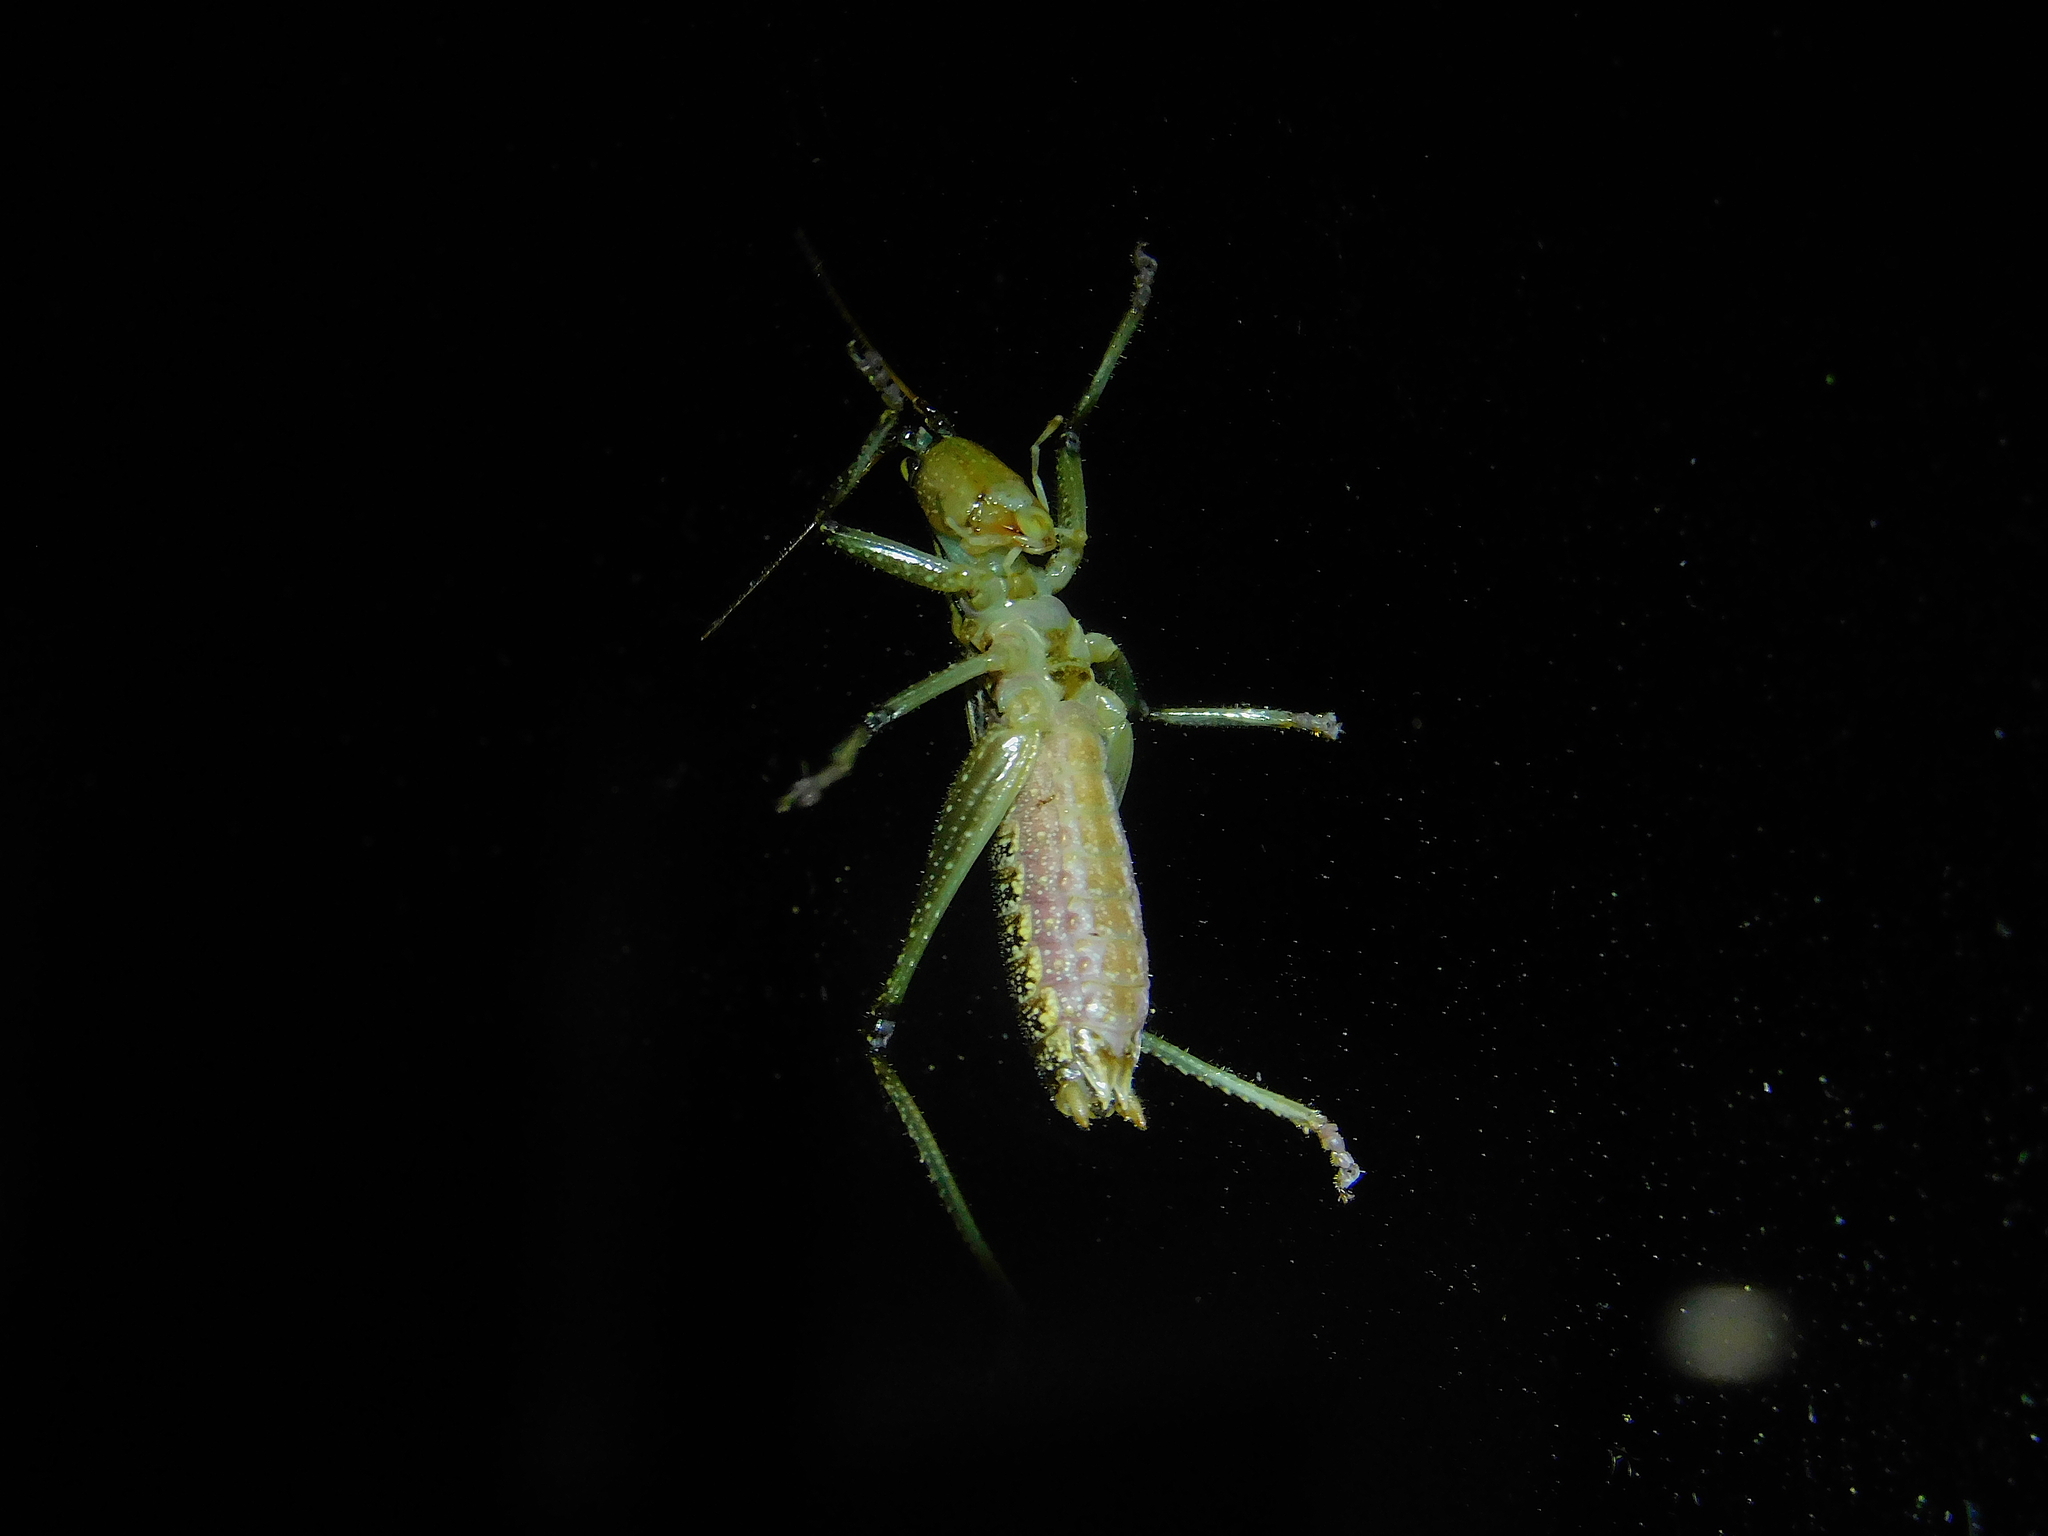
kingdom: Animalia
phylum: Arthropoda
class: Insecta
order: Orthoptera
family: Tettigoniidae
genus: Coptaspis
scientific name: Coptaspis lateralis
